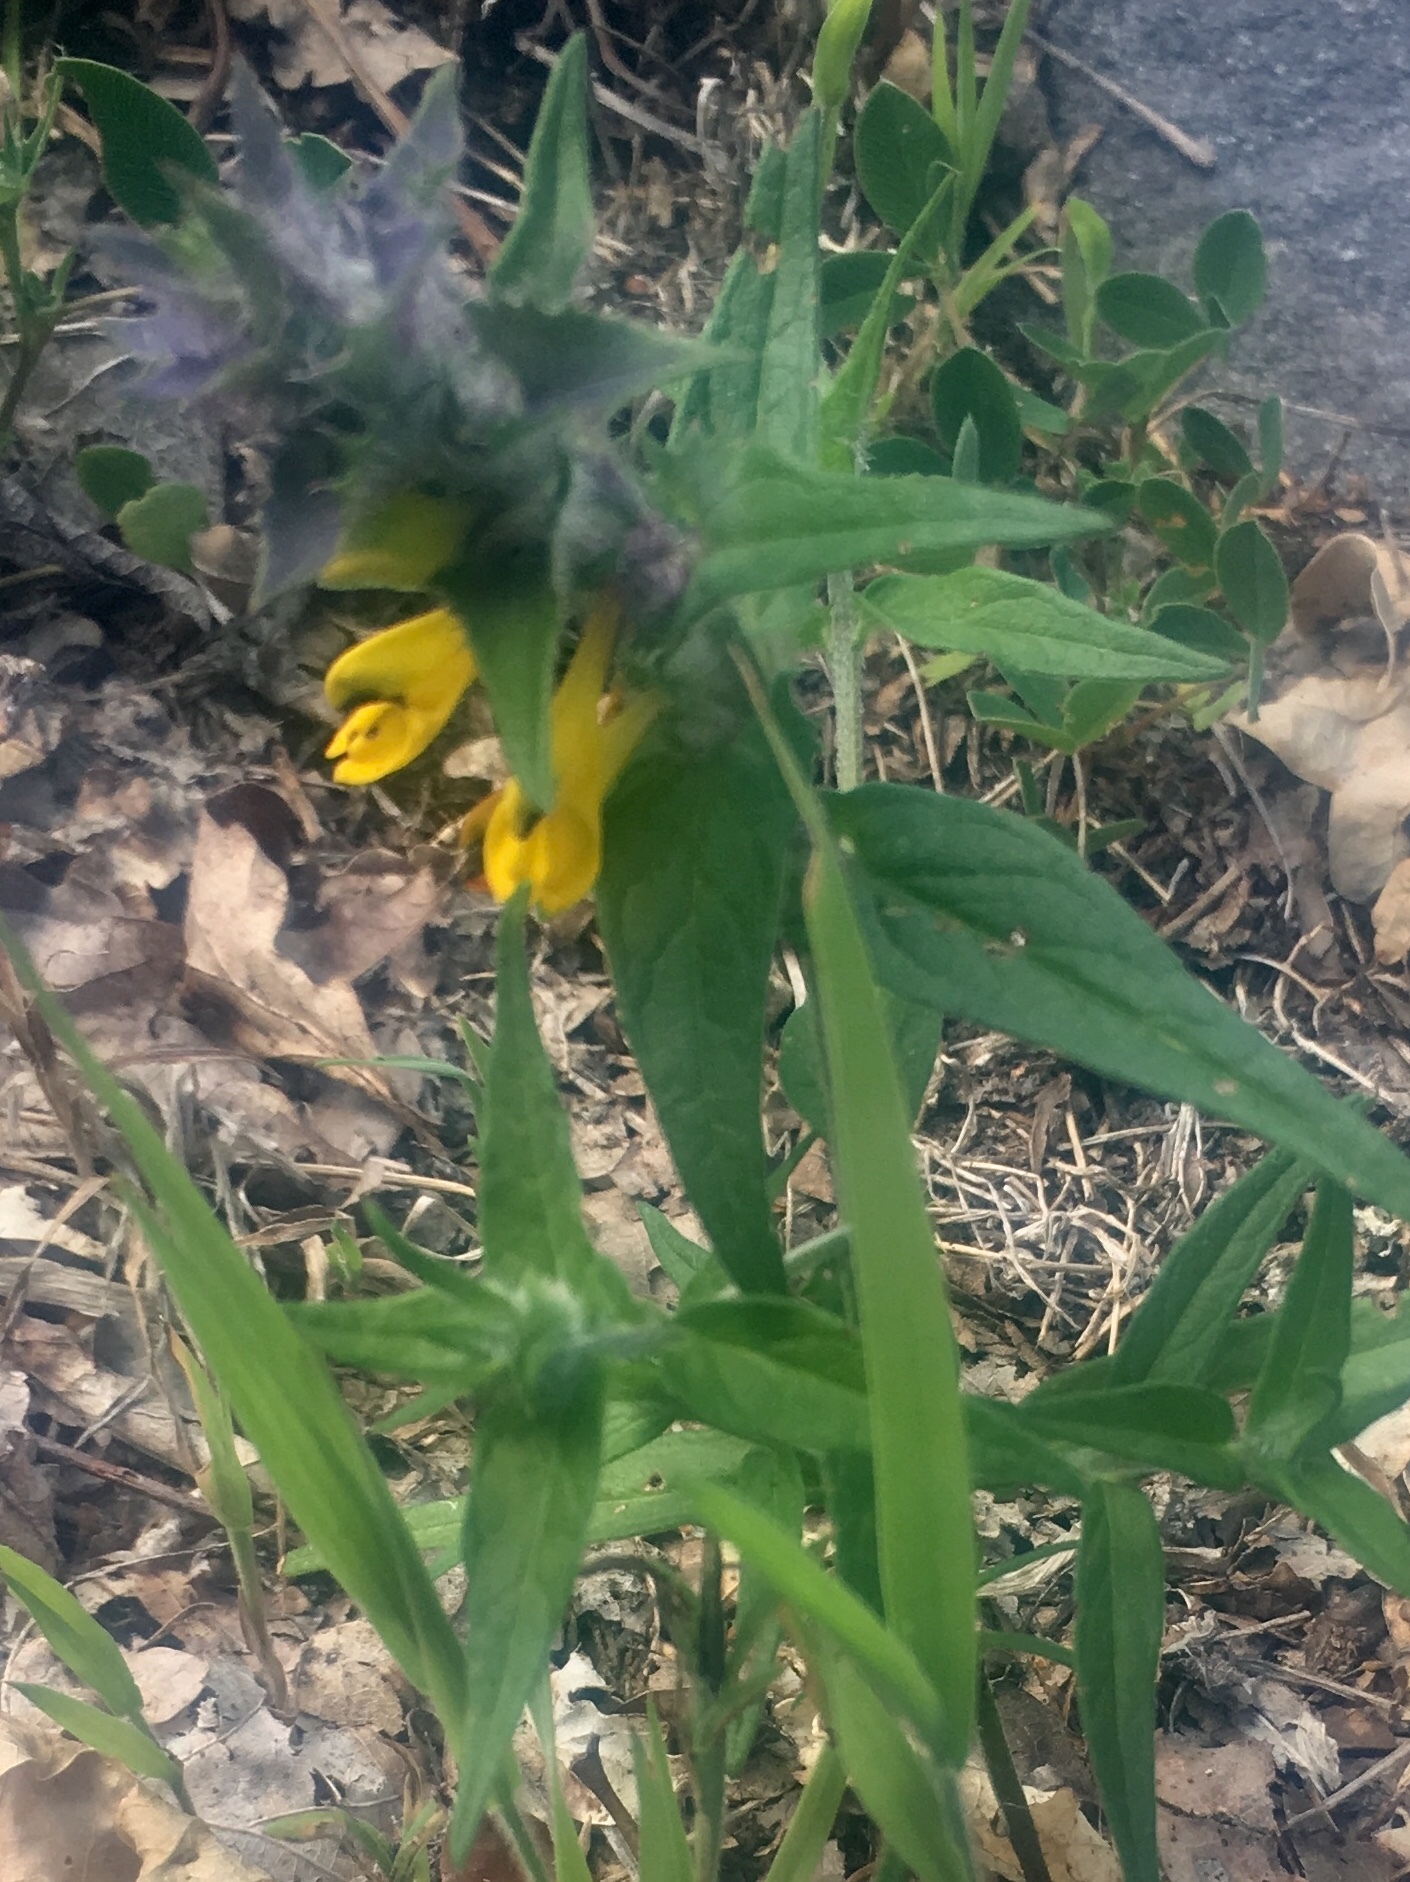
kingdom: Plantae
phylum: Tracheophyta
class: Magnoliopsida
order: Lamiales
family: Orobanchaceae
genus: Melampyrum
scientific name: Melampyrum nemorosum
